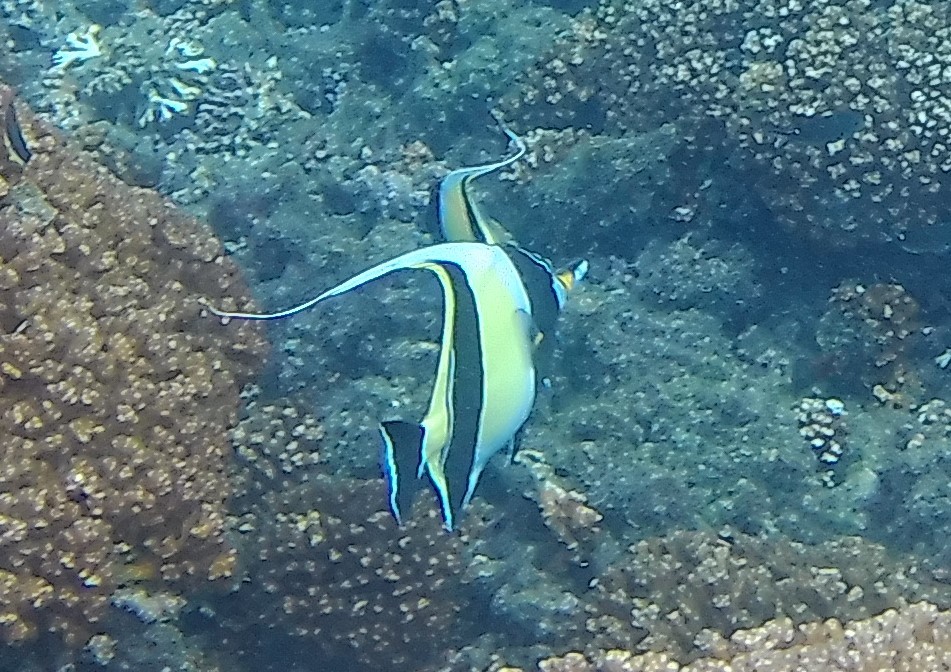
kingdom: Animalia
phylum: Chordata
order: Perciformes
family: Zanclidae
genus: Zanclus
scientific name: Zanclus cornutus
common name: Moorish idol
